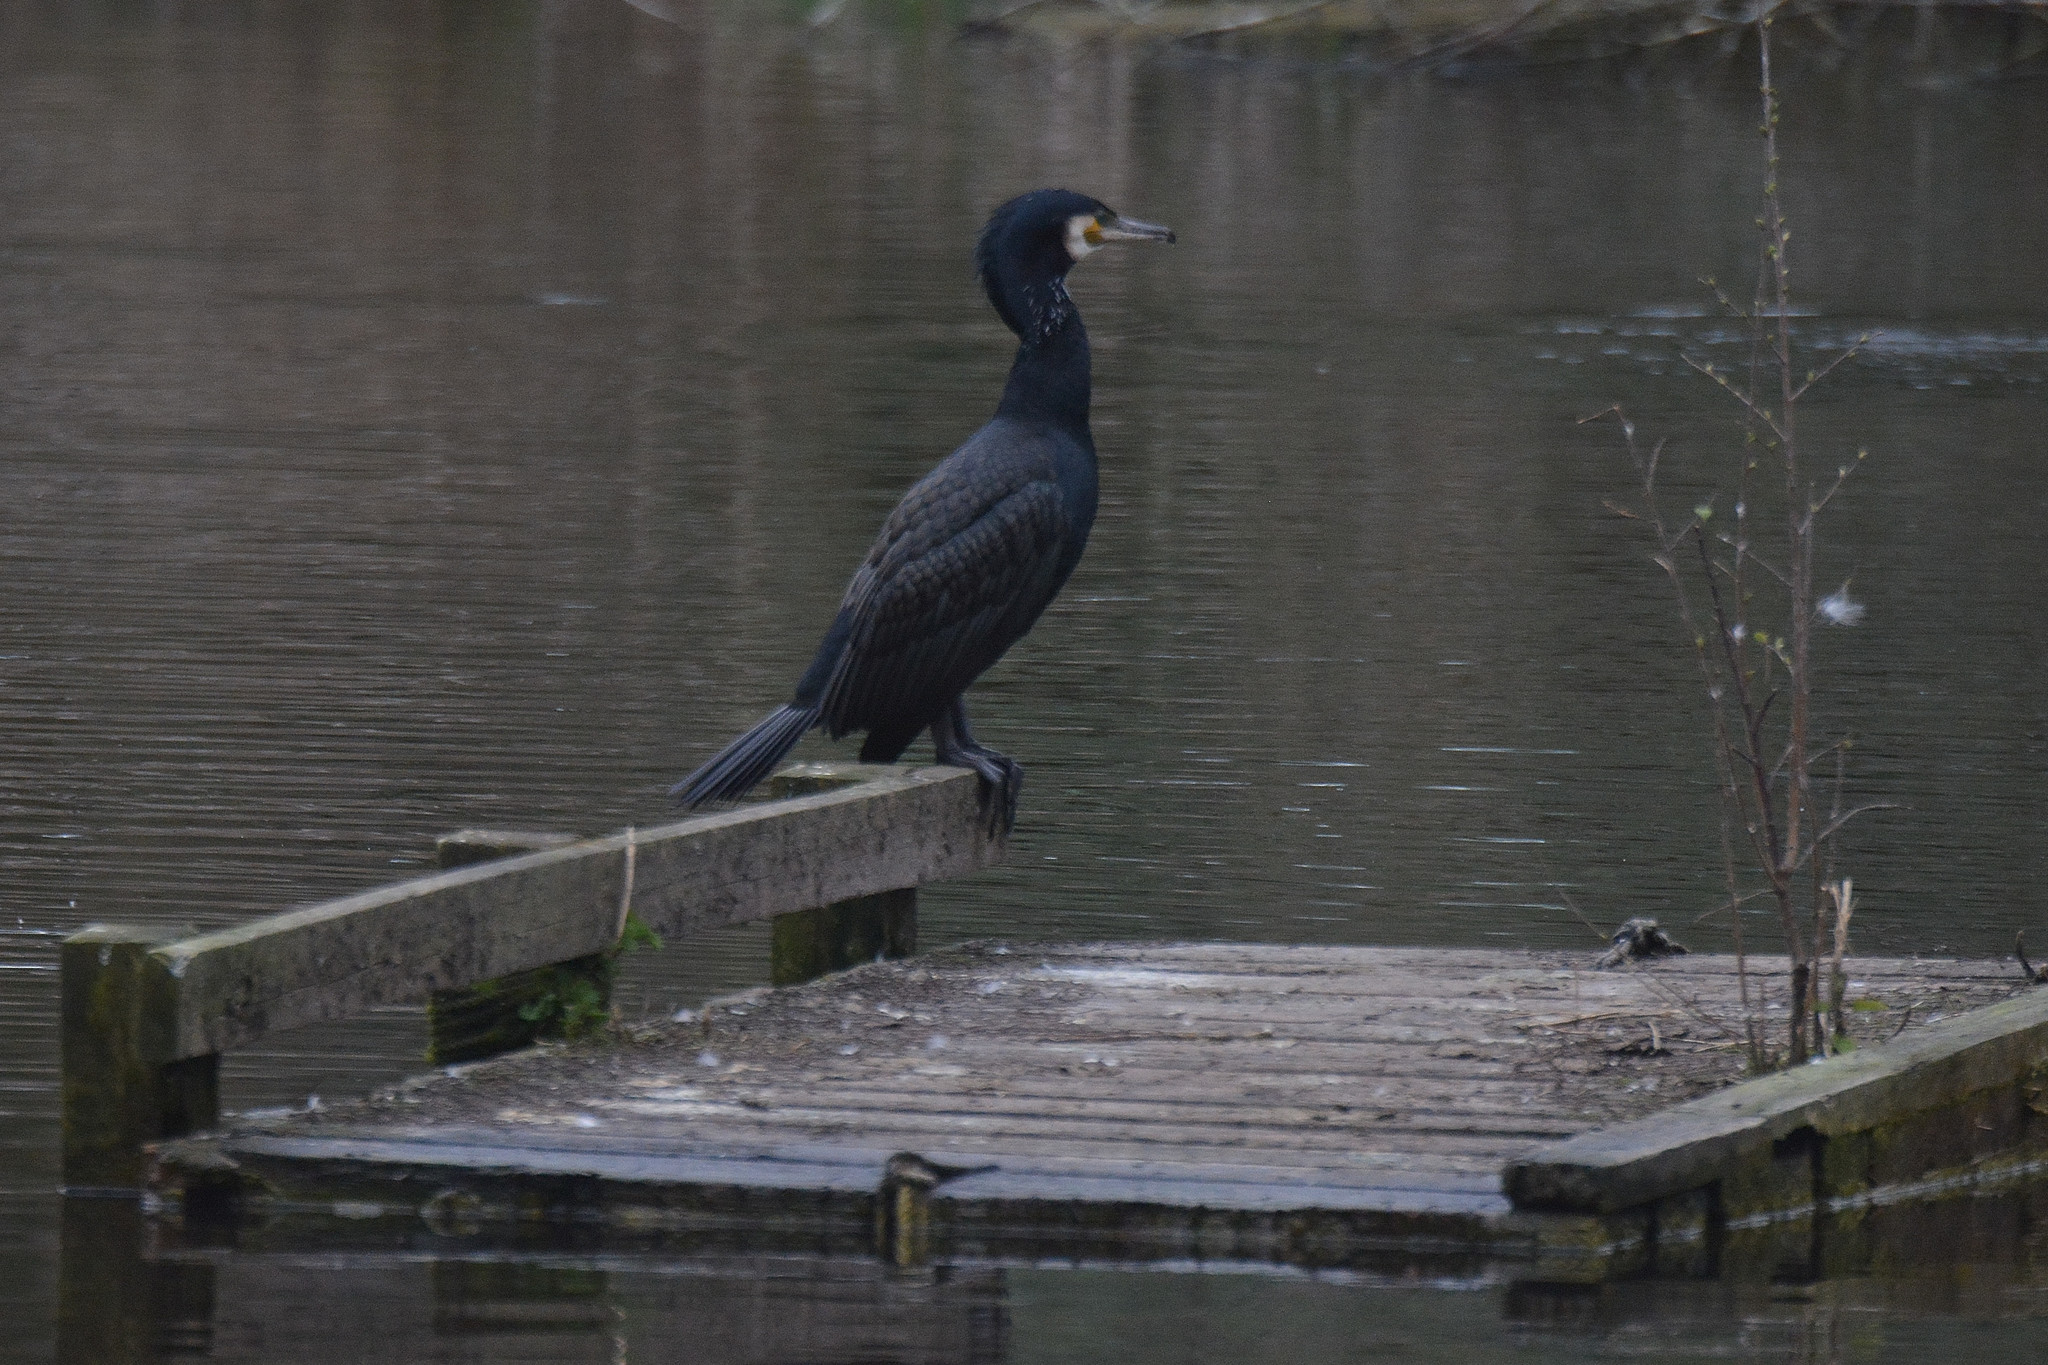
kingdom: Animalia
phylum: Chordata
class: Aves
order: Suliformes
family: Phalacrocoracidae
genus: Phalacrocorax
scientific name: Phalacrocorax carbo
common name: Great cormorant
